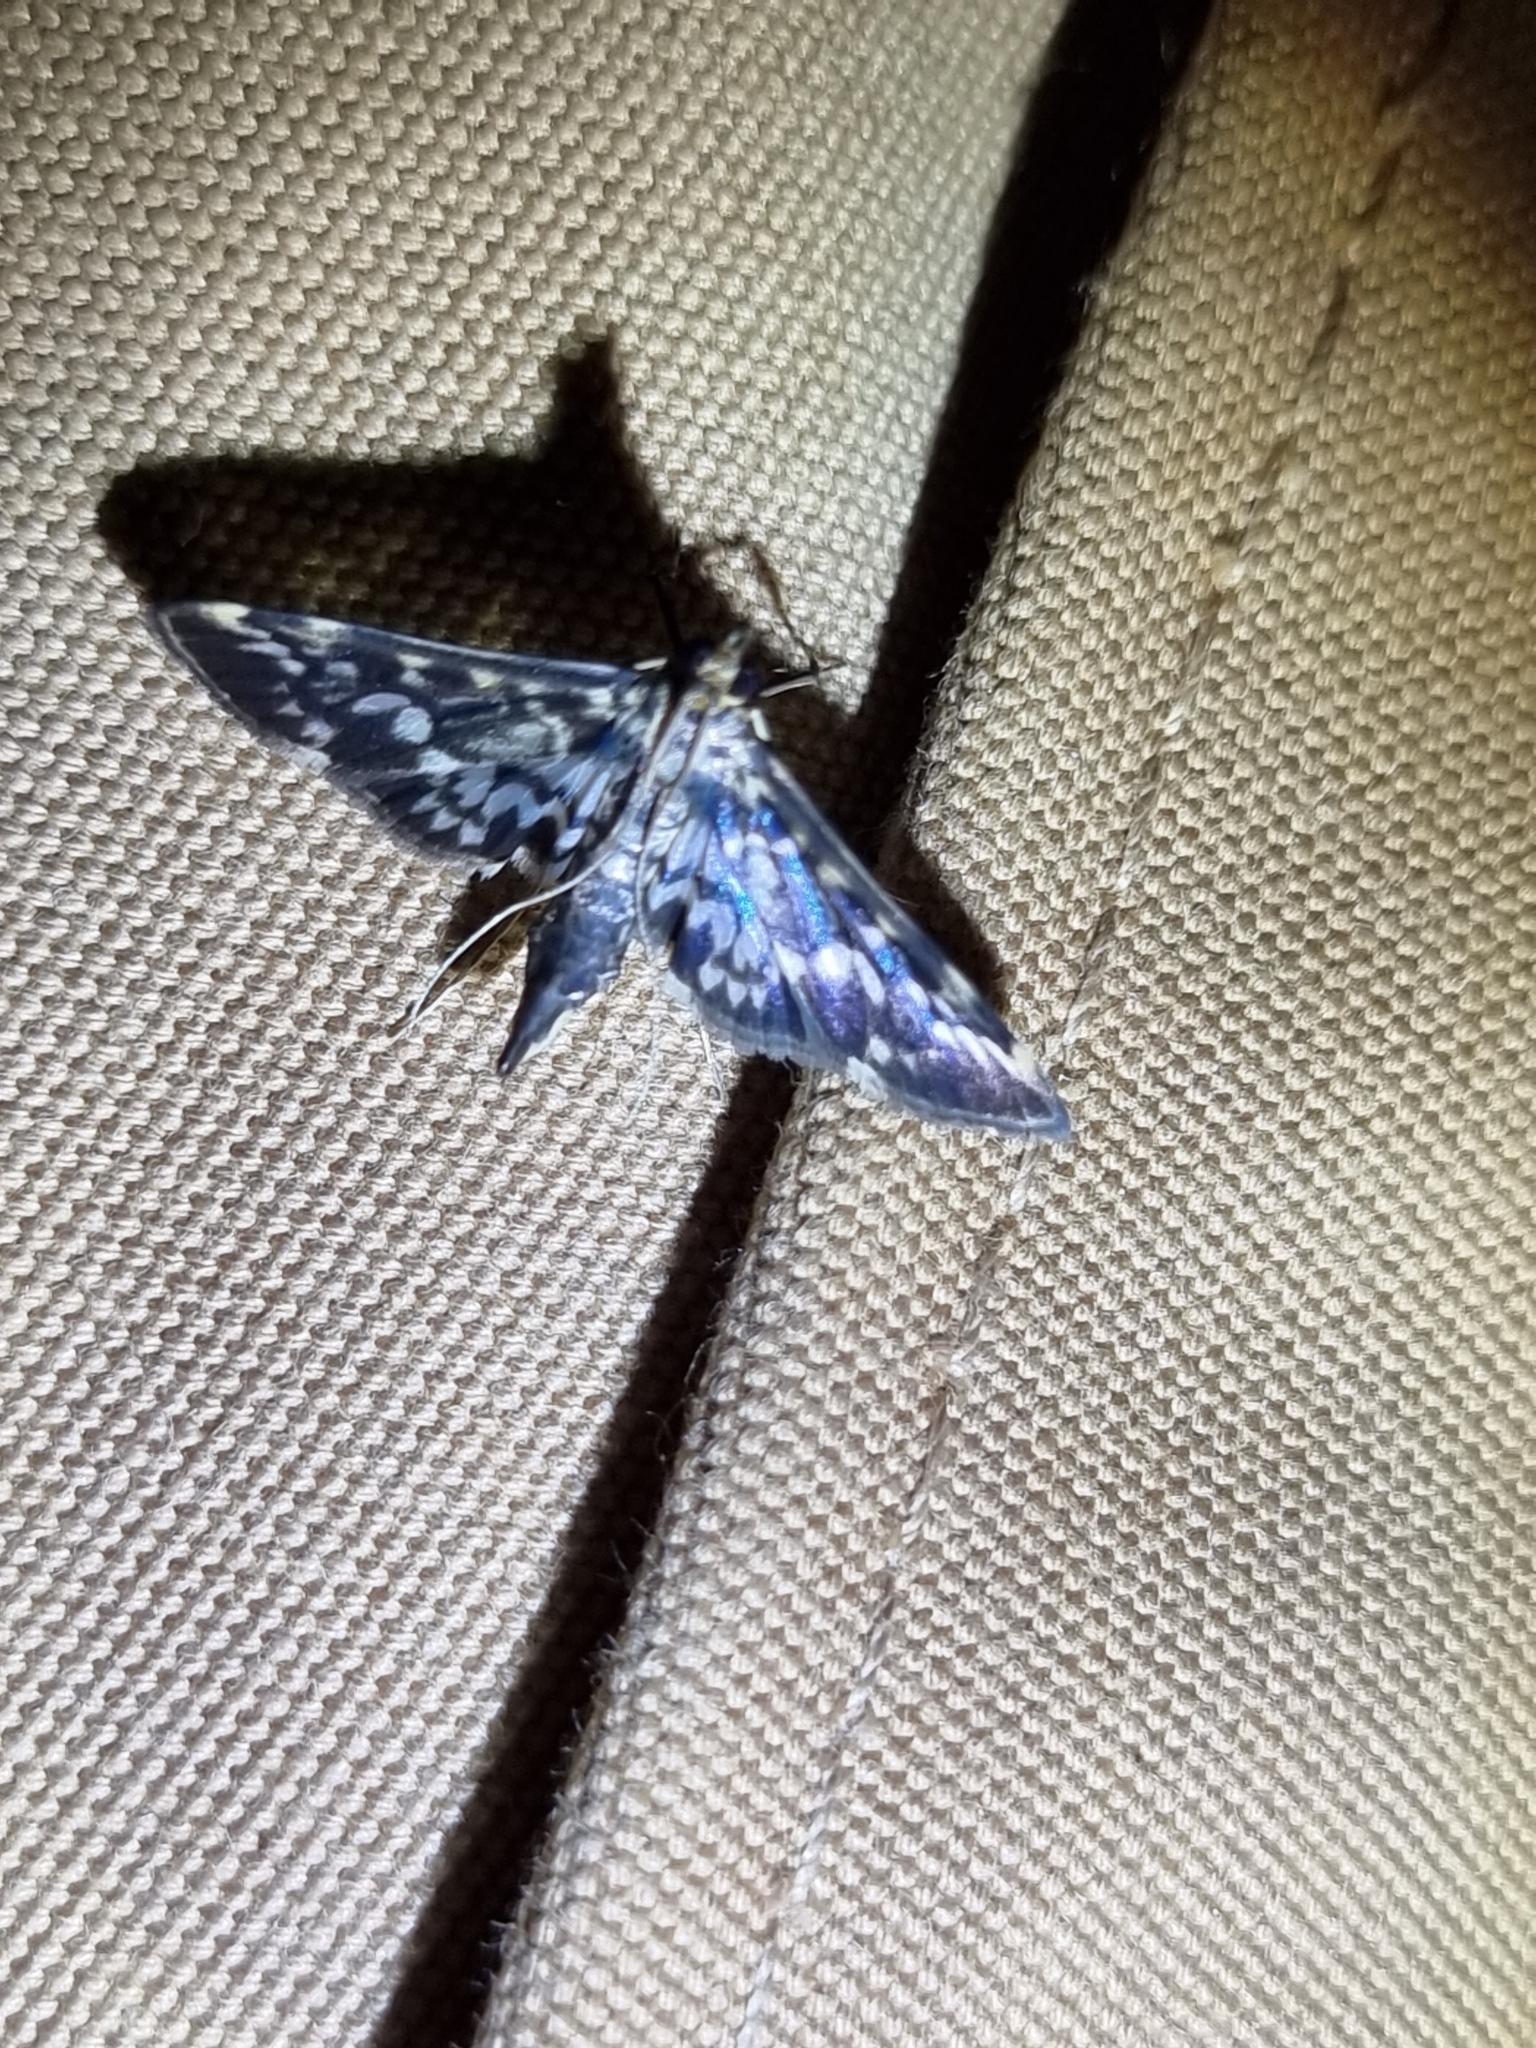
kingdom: Animalia
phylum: Arthropoda
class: Insecta
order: Lepidoptera
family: Crambidae
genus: Pygospila
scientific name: Pygospila tyres
